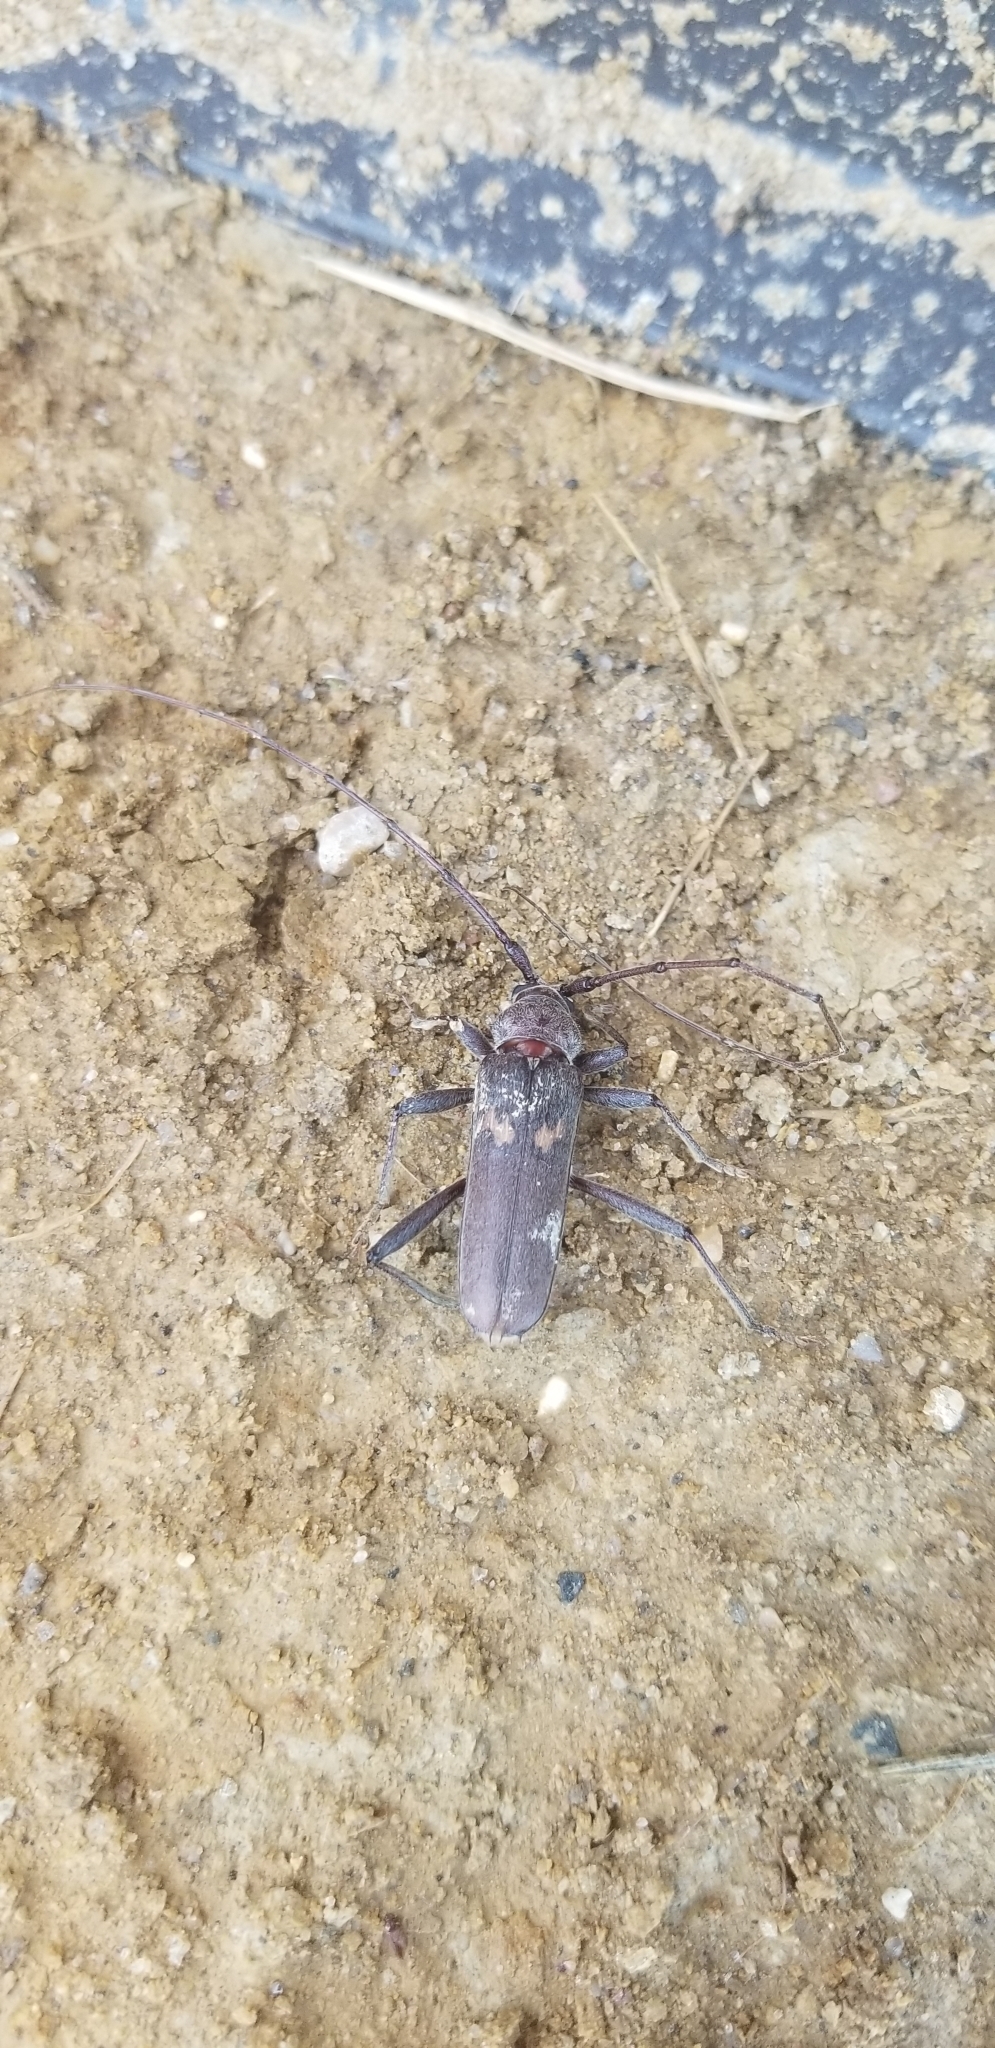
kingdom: Animalia
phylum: Arthropoda
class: Insecta
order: Coleoptera
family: Cerambycidae
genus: Knulliana
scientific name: Knulliana cincta
